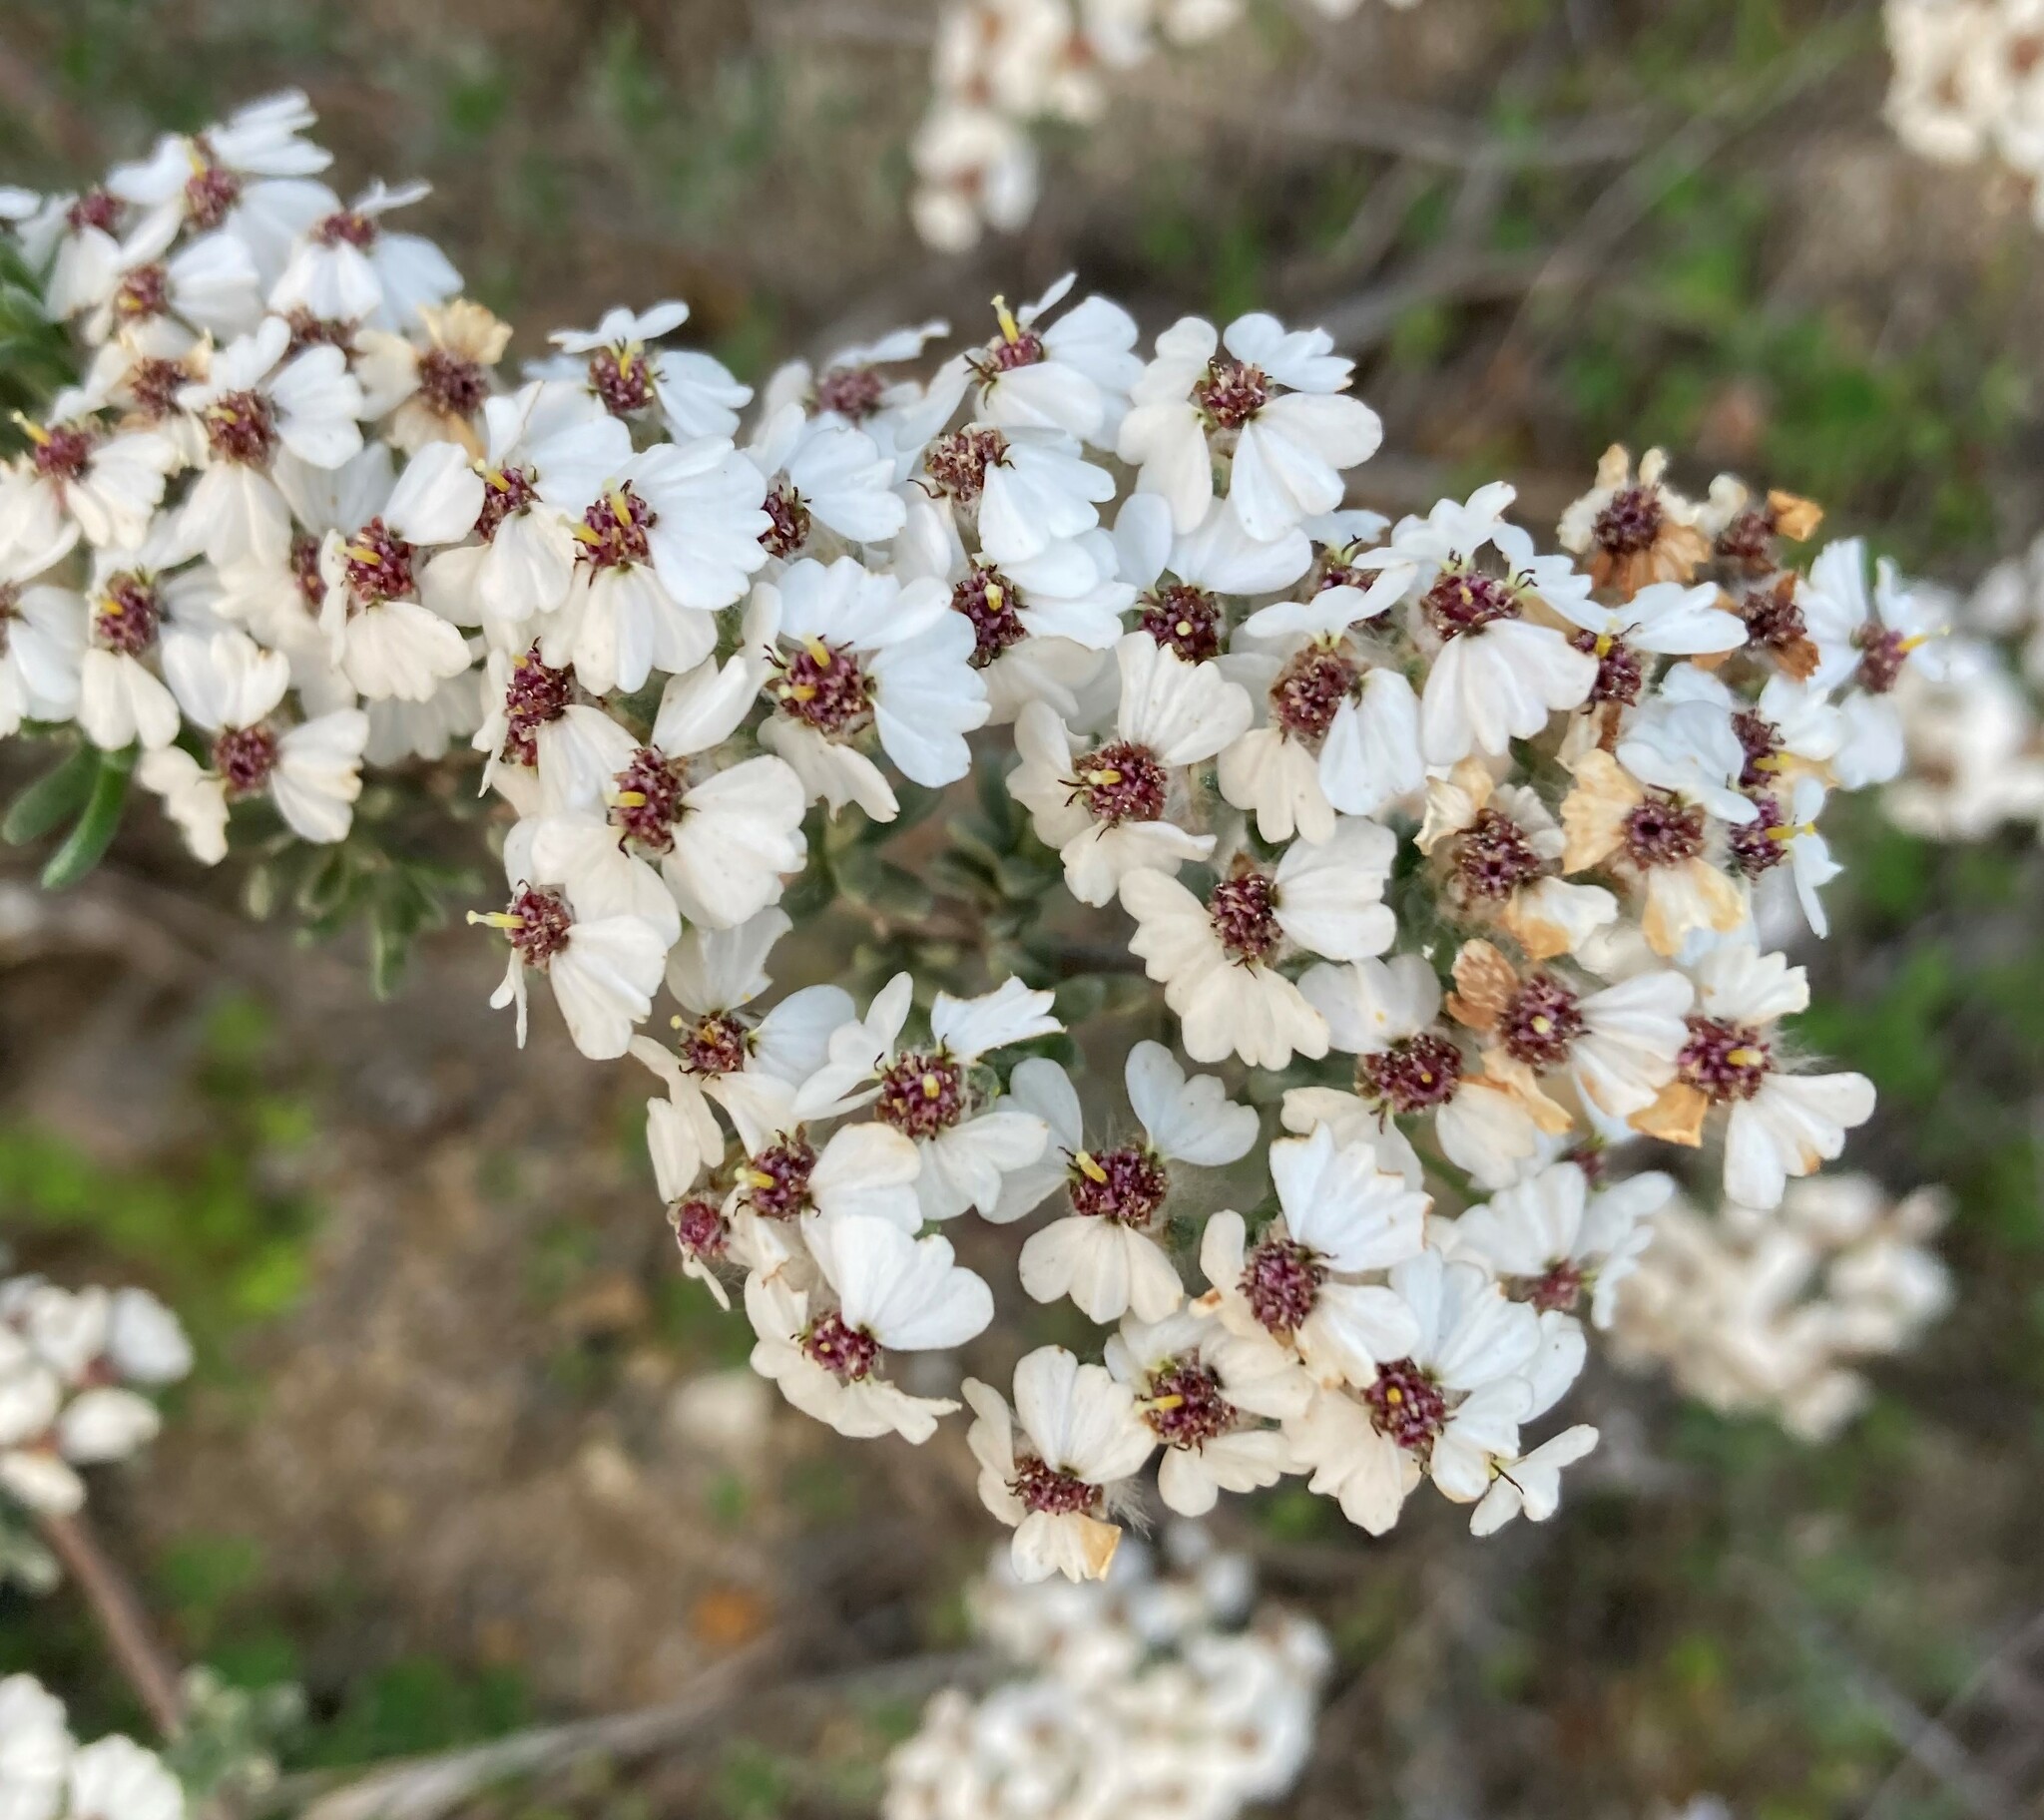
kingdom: Plantae
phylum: Tracheophyta
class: Magnoliopsida
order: Asterales
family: Asteraceae
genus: Eriocephalus
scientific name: Eriocephalus africanus
